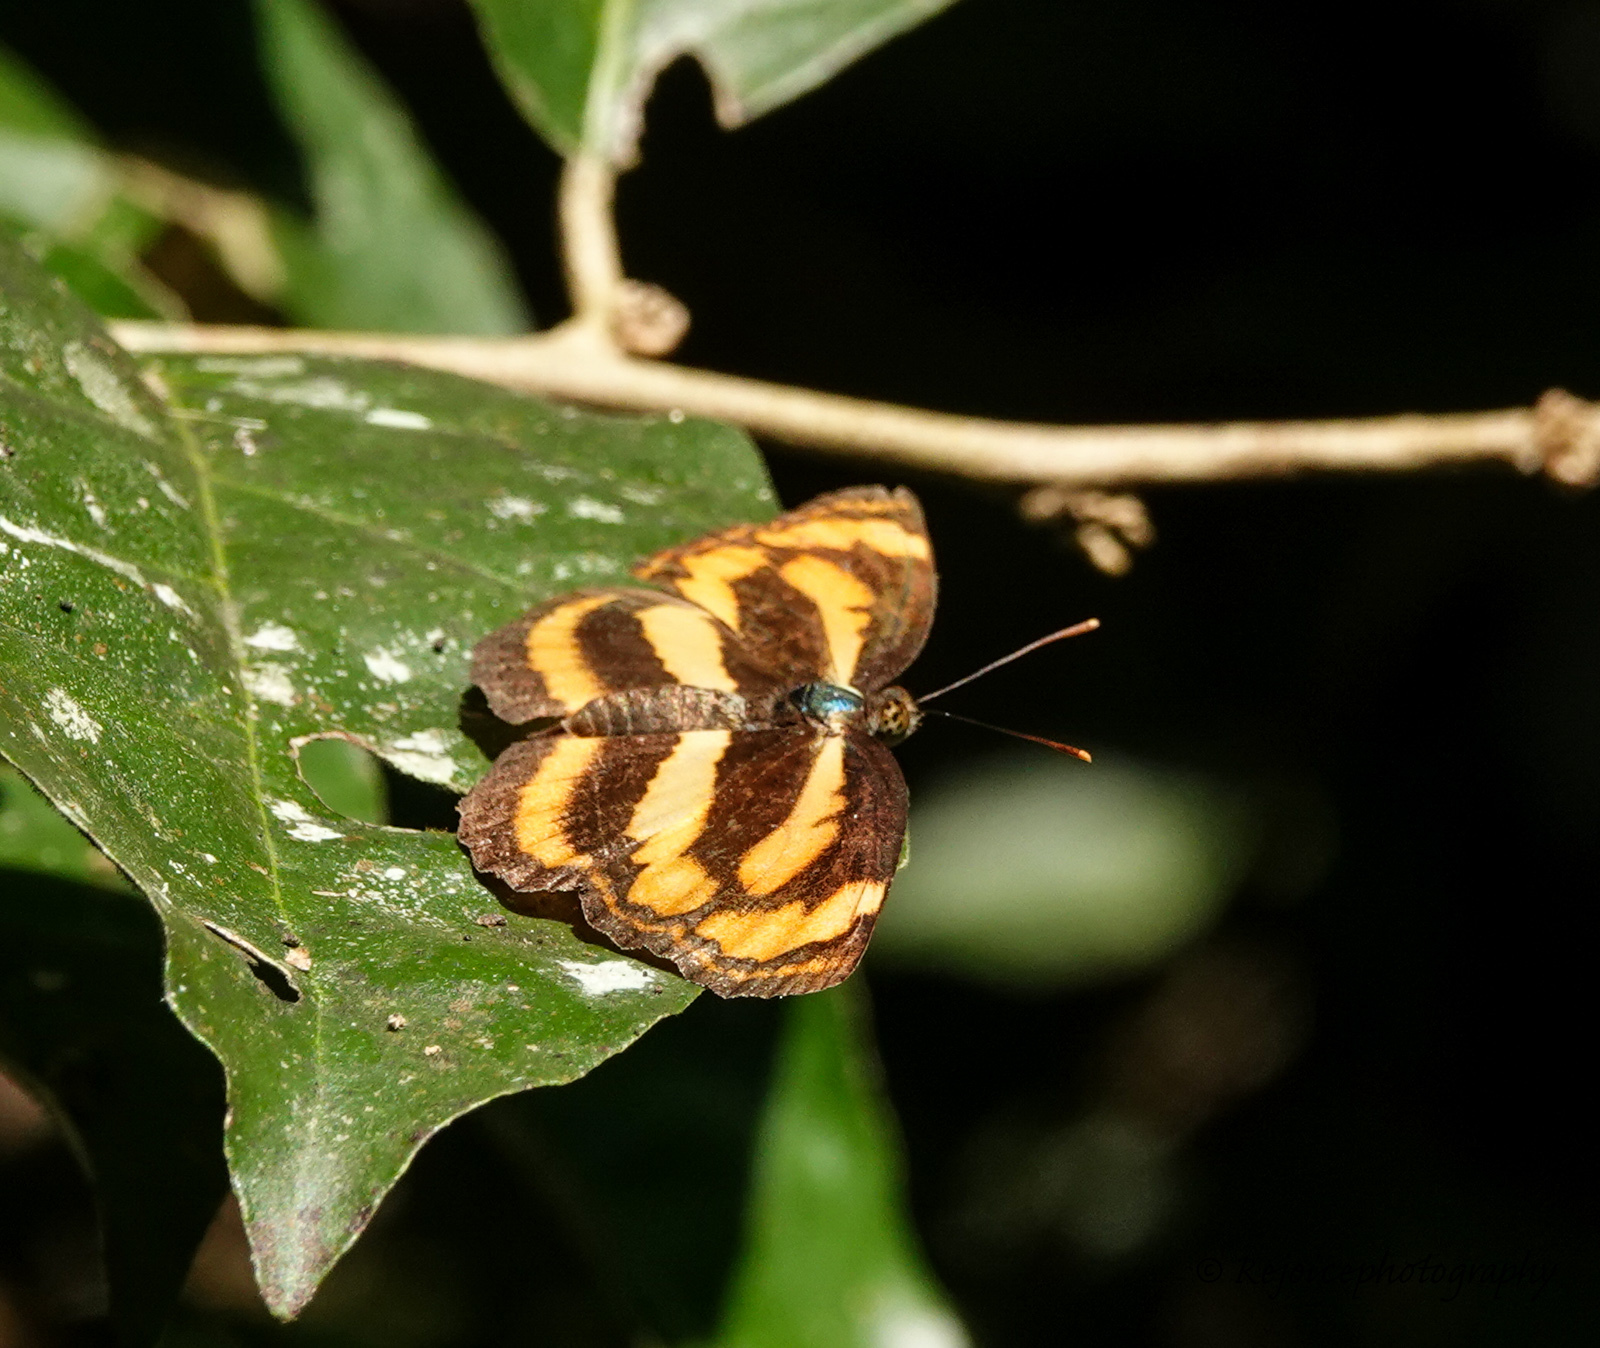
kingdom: Animalia
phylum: Arthropoda
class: Insecta
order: Lepidoptera
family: Nymphalidae
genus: Pantoporia
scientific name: Pantoporia hordonia
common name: Common lascar
